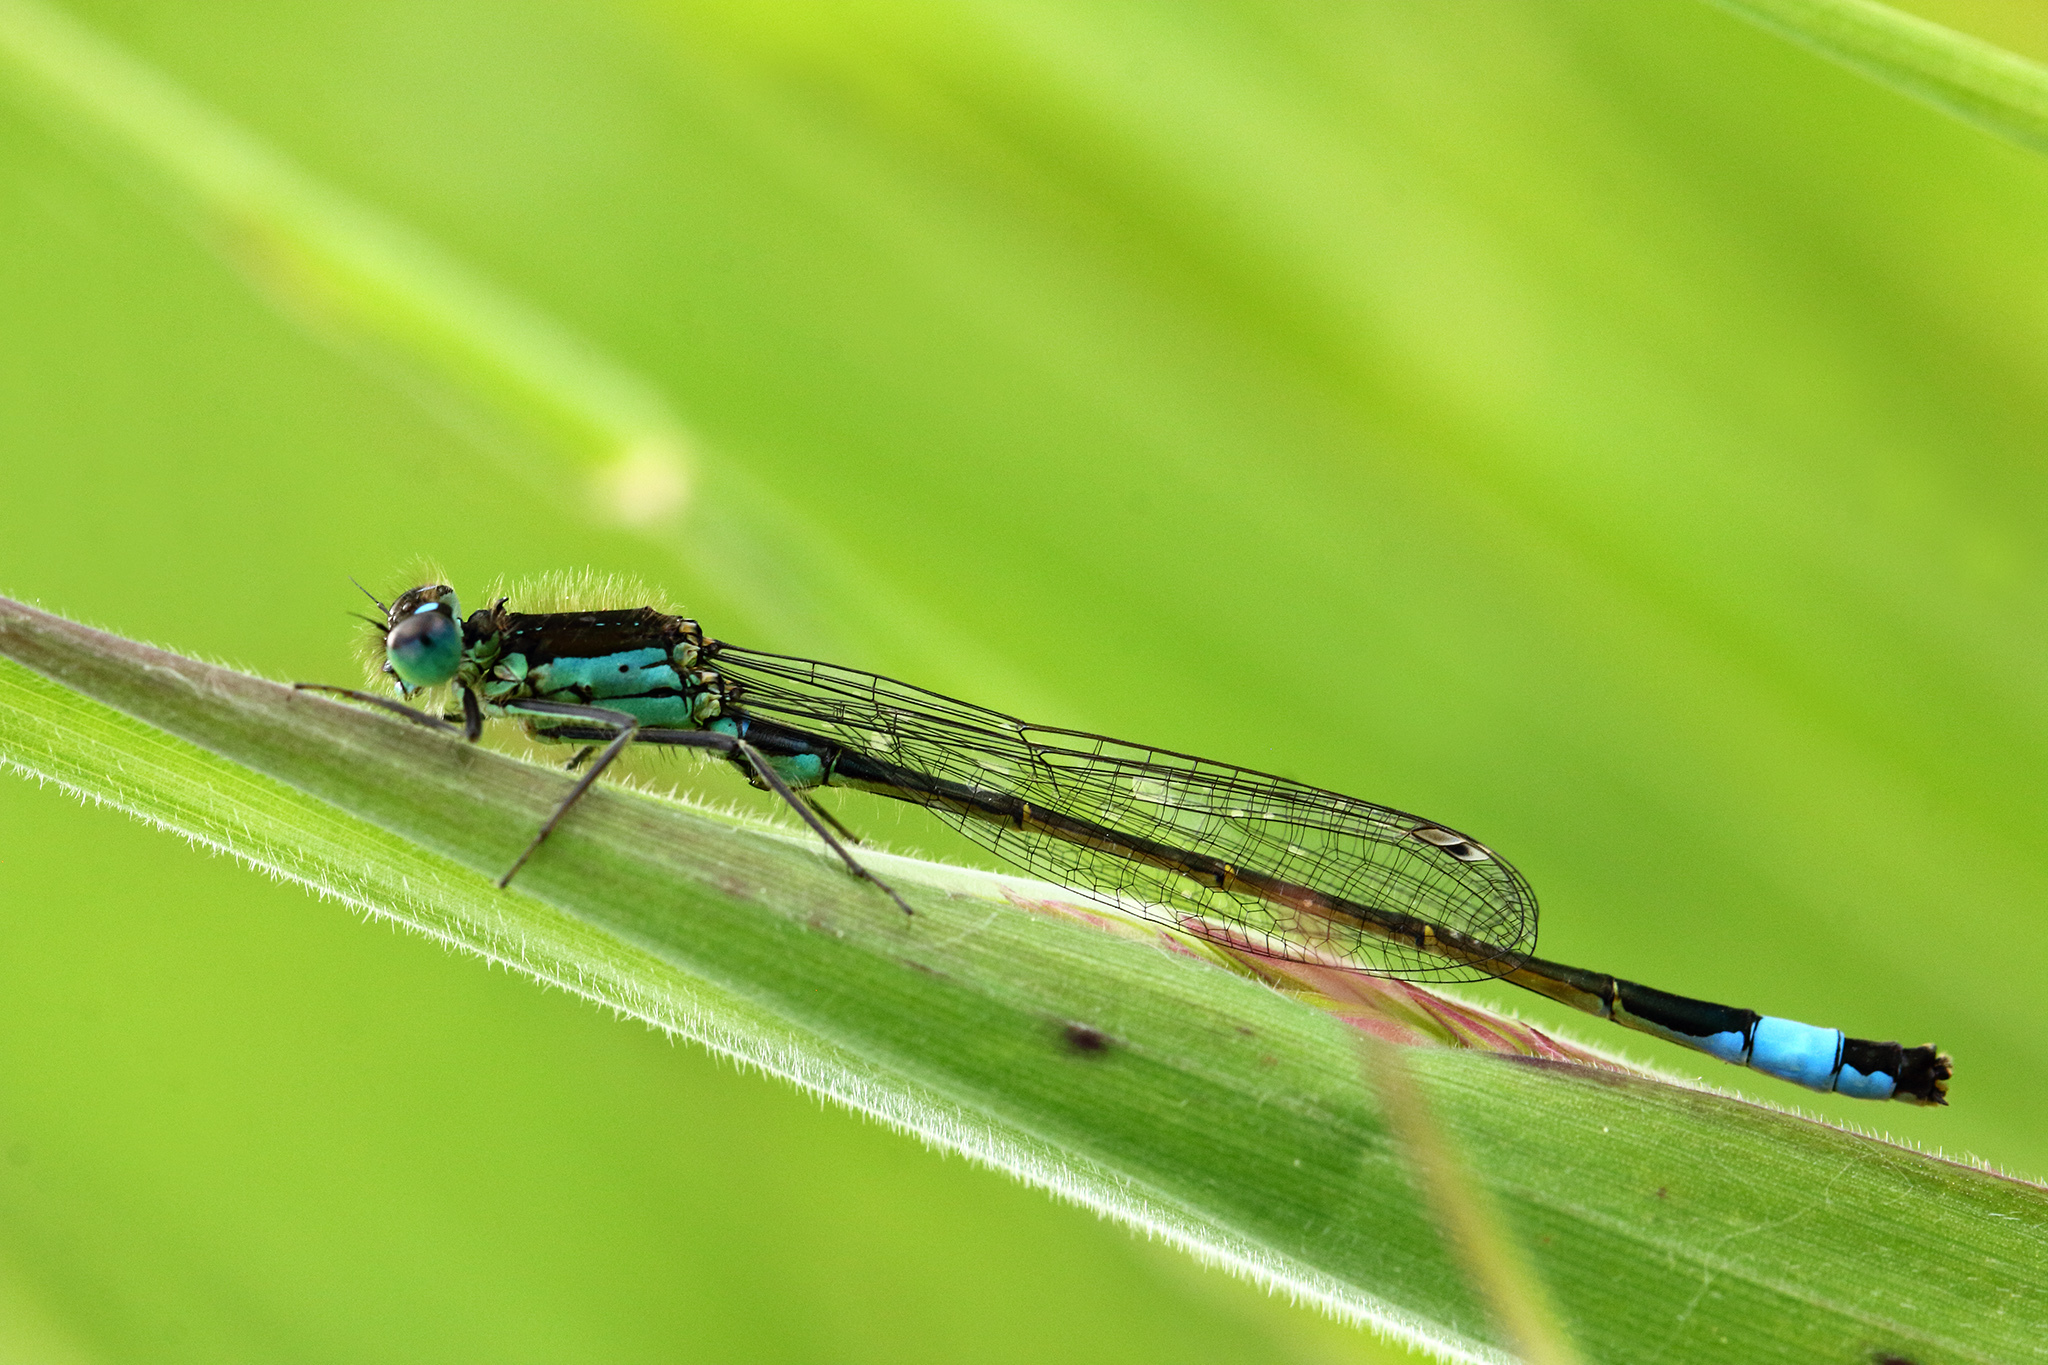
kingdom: Animalia
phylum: Arthropoda
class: Insecta
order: Odonata
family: Coenagrionidae
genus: Ischnura
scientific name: Ischnura elegans
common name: Blue-tailed damselfly
